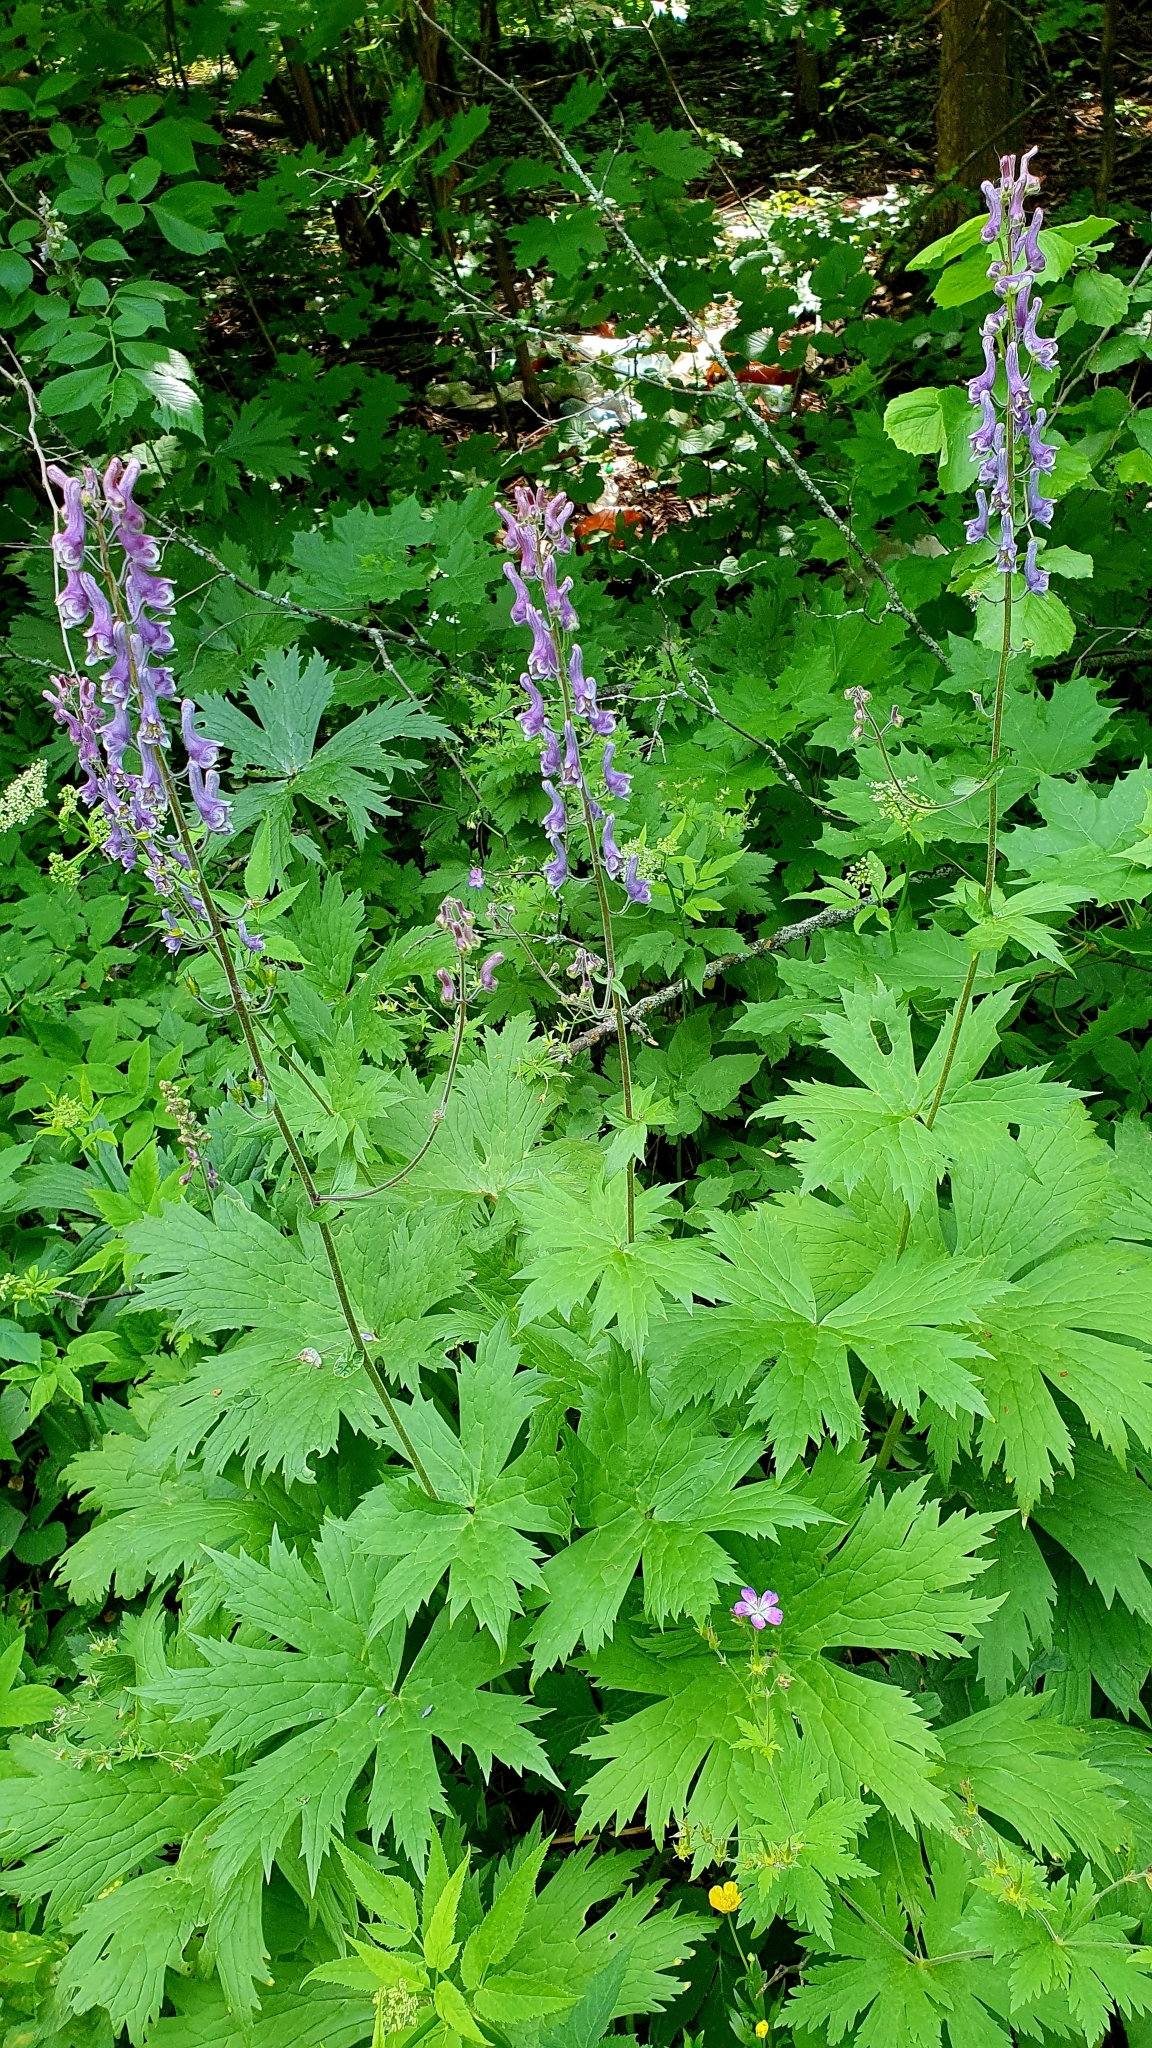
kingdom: Plantae
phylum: Tracheophyta
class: Magnoliopsida
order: Ranunculales
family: Ranunculaceae
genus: Aconitum
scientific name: Aconitum septentrionale
